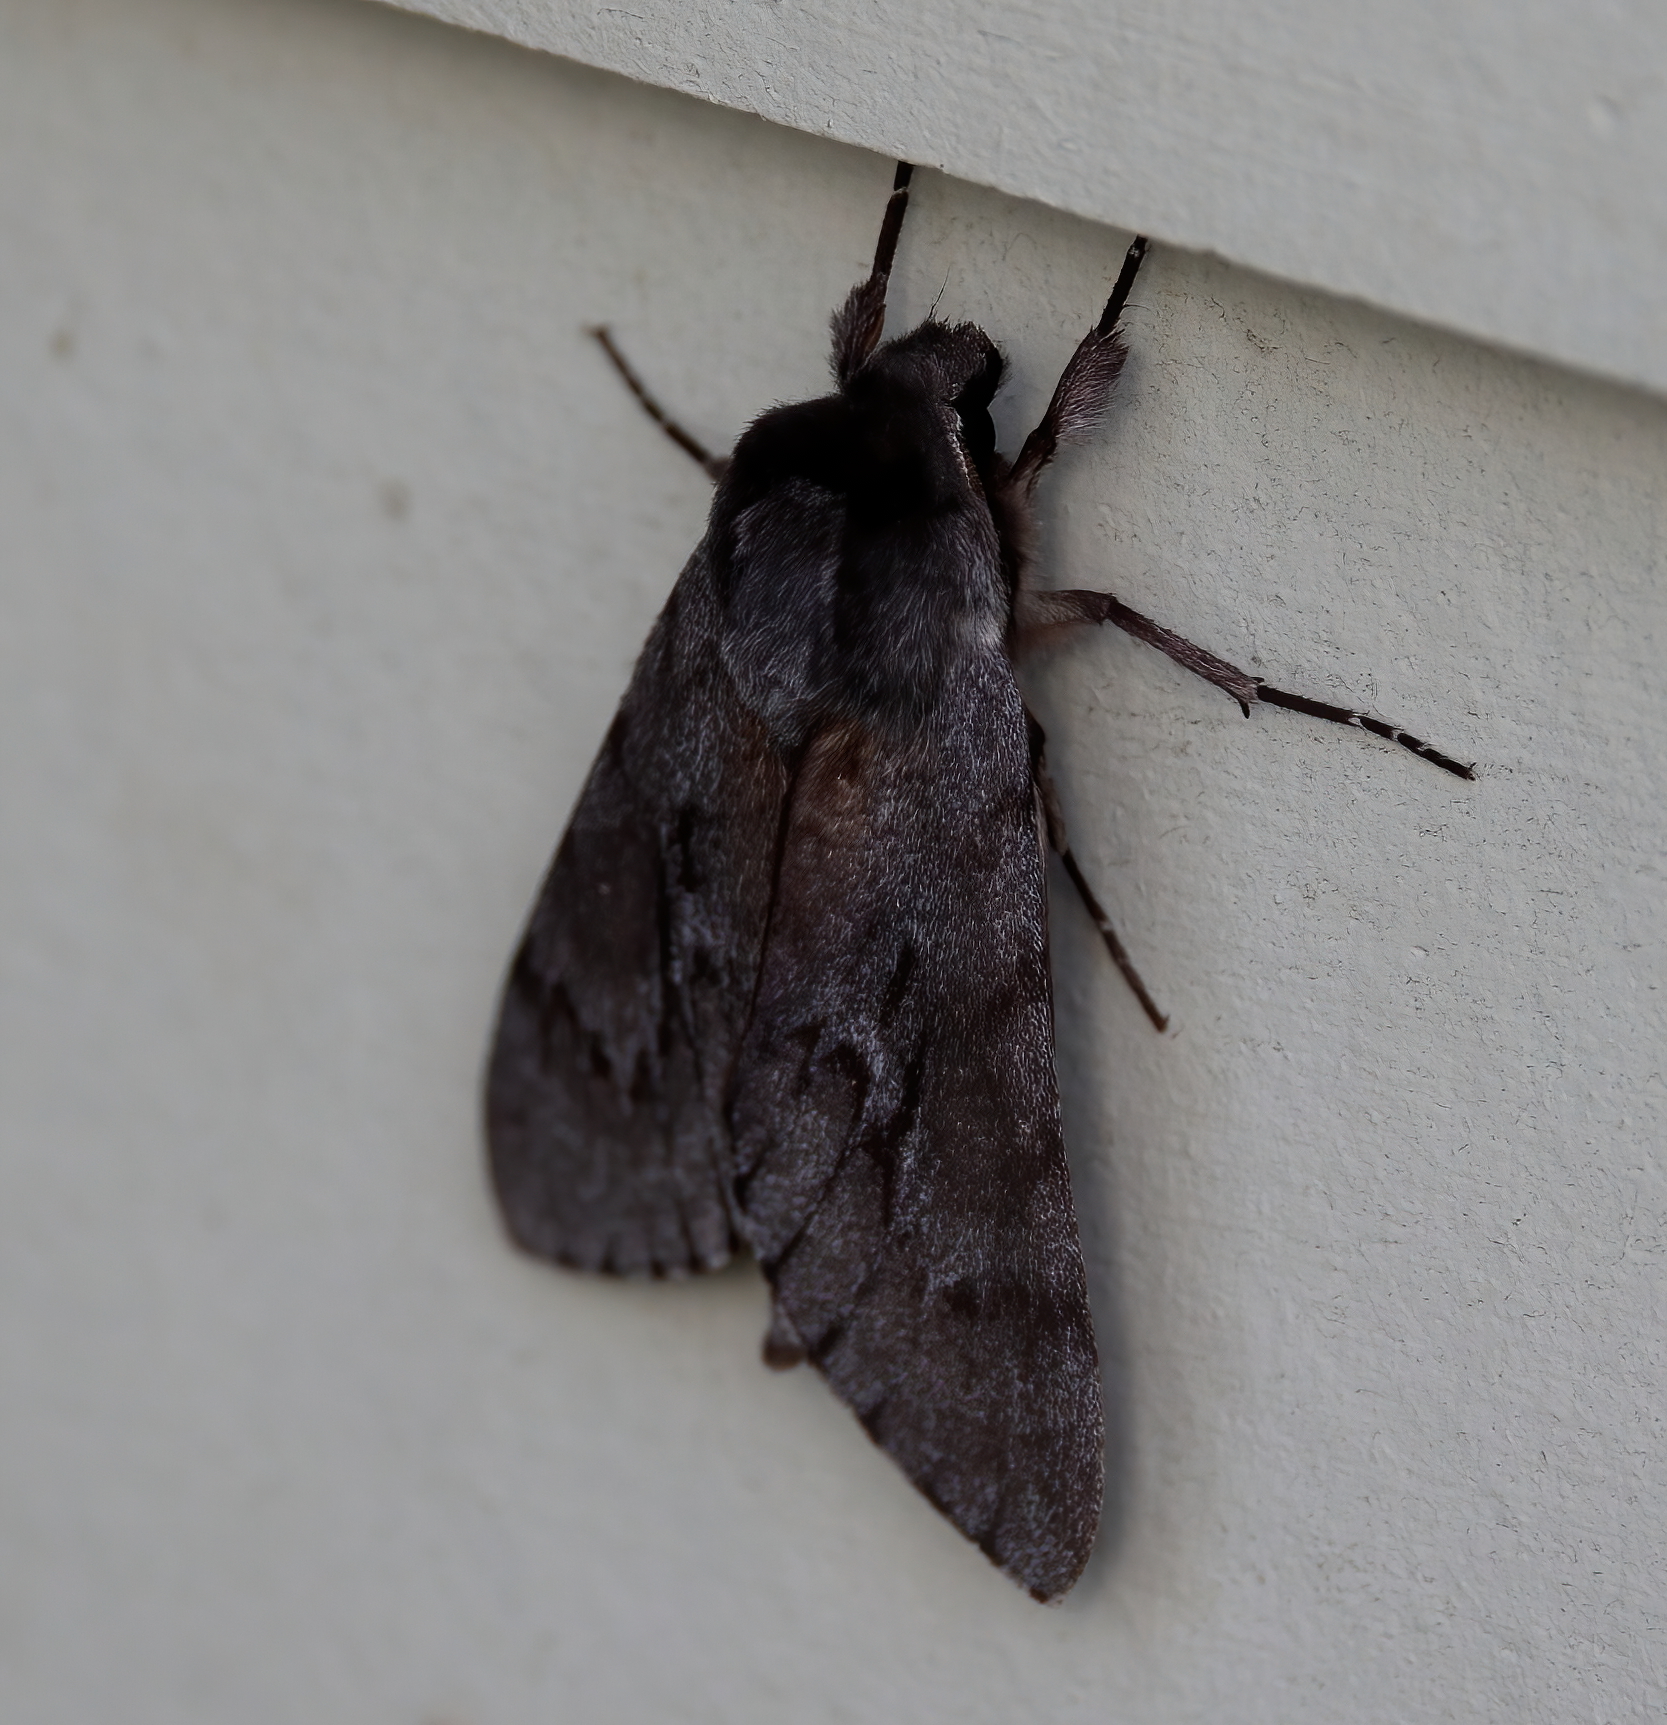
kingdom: Animalia
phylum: Arthropoda
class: Insecta
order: Lepidoptera
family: Sphingidae
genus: Lapara
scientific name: Lapara coniferarum
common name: Southern pine sphinx
